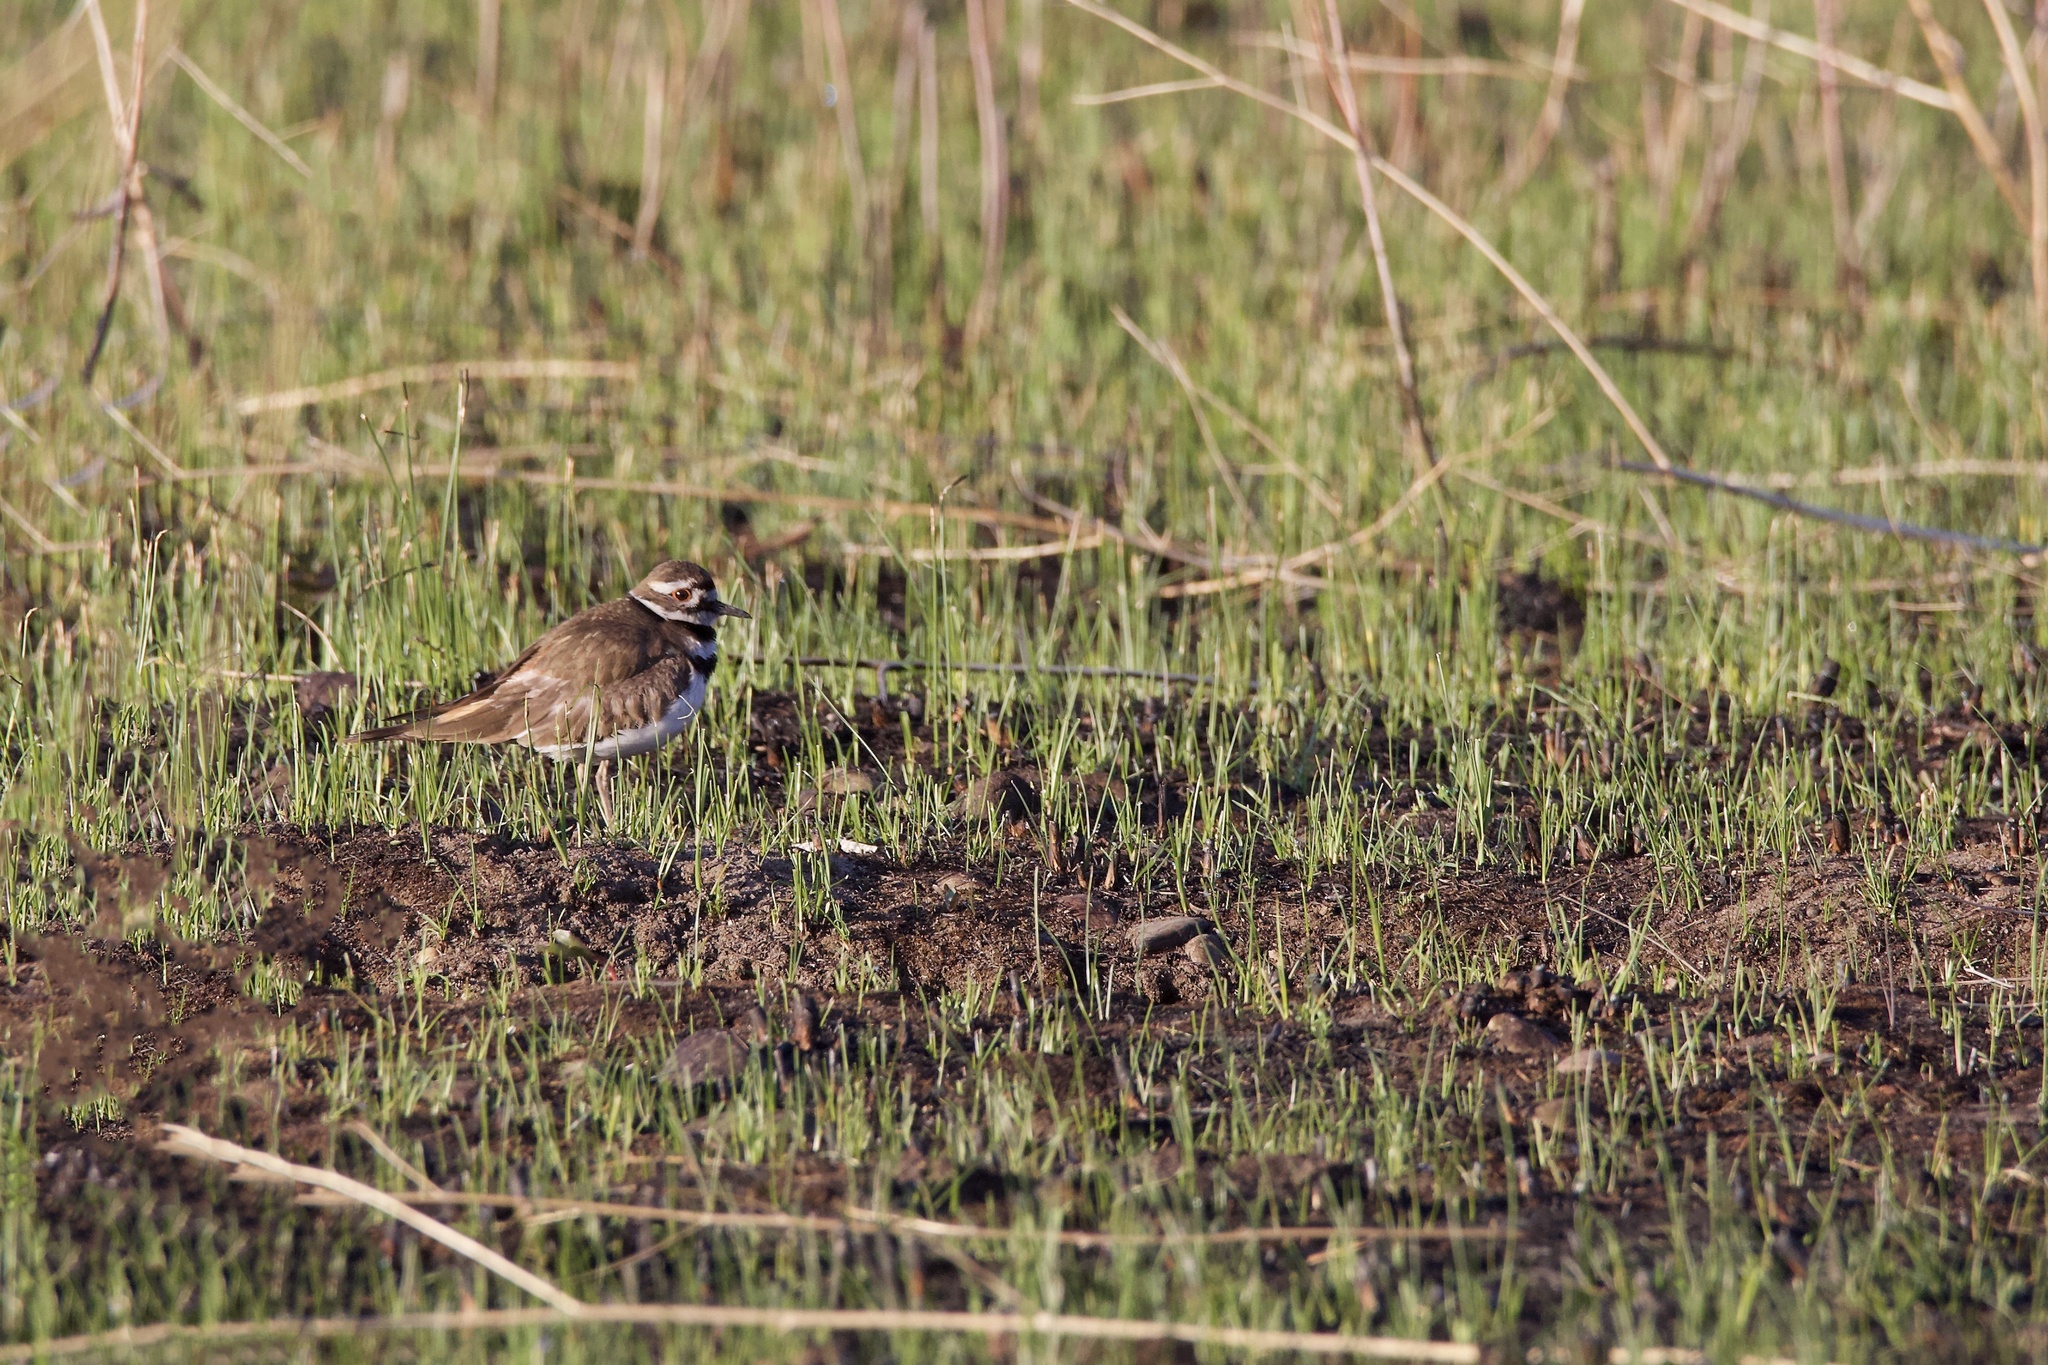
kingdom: Animalia
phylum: Chordata
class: Aves
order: Charadriiformes
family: Charadriidae
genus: Charadrius
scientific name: Charadrius vociferus
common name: Killdeer
